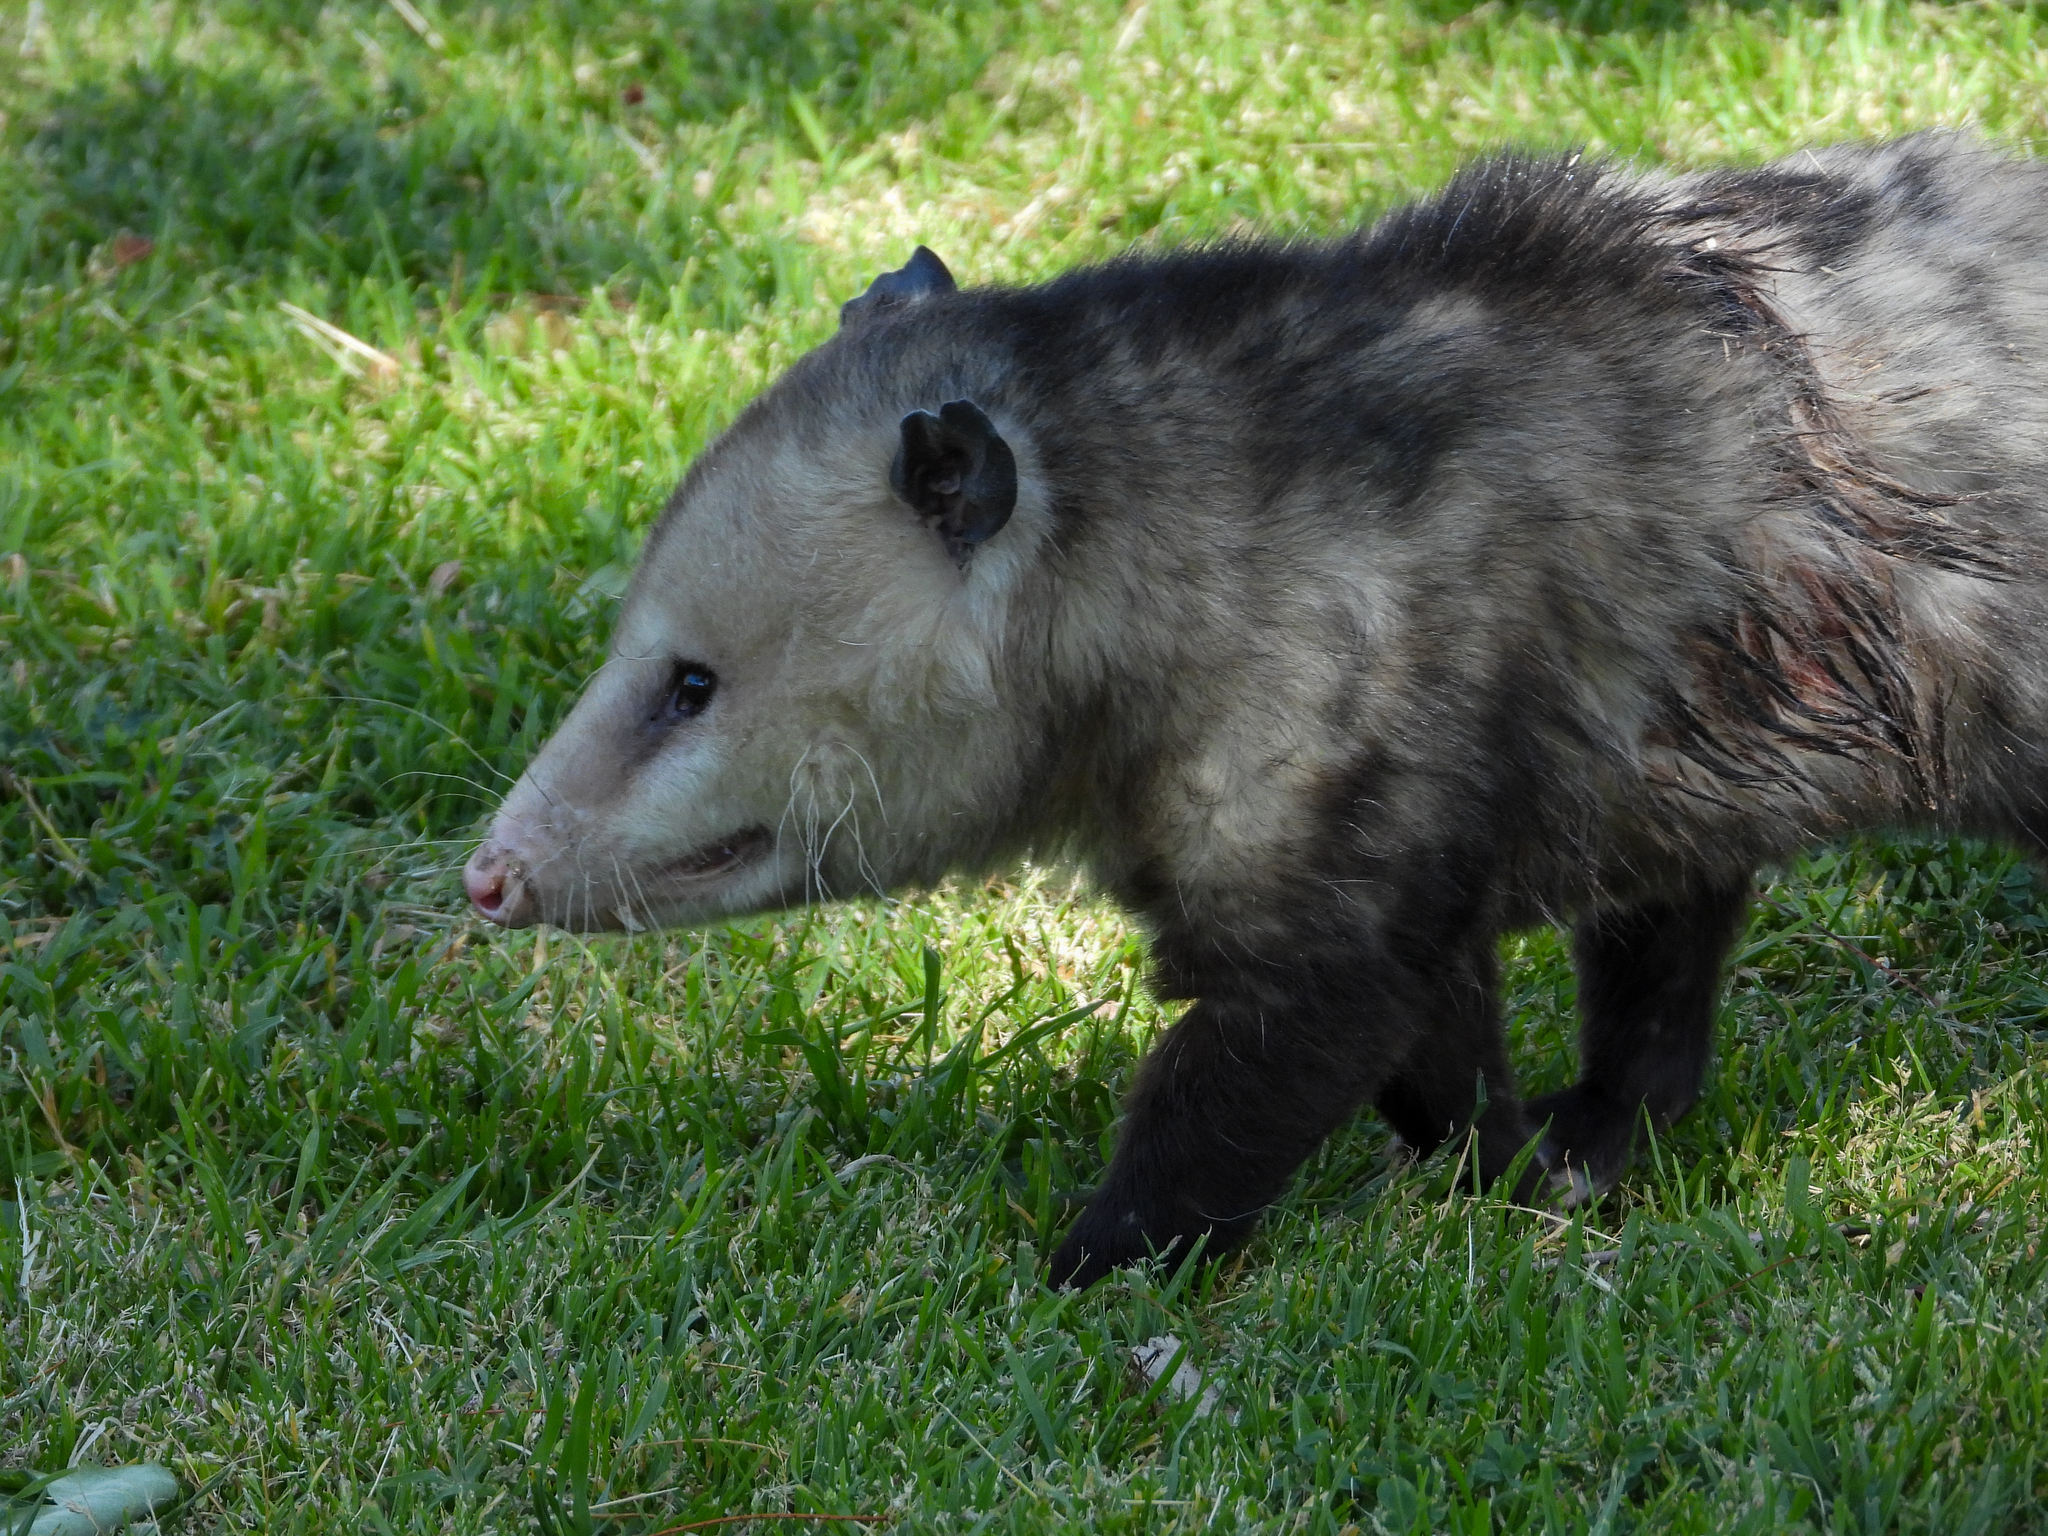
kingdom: Animalia
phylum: Chordata
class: Mammalia
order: Didelphimorphia
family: Didelphidae
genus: Didelphis
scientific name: Didelphis virginiana
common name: Virginia opossum
